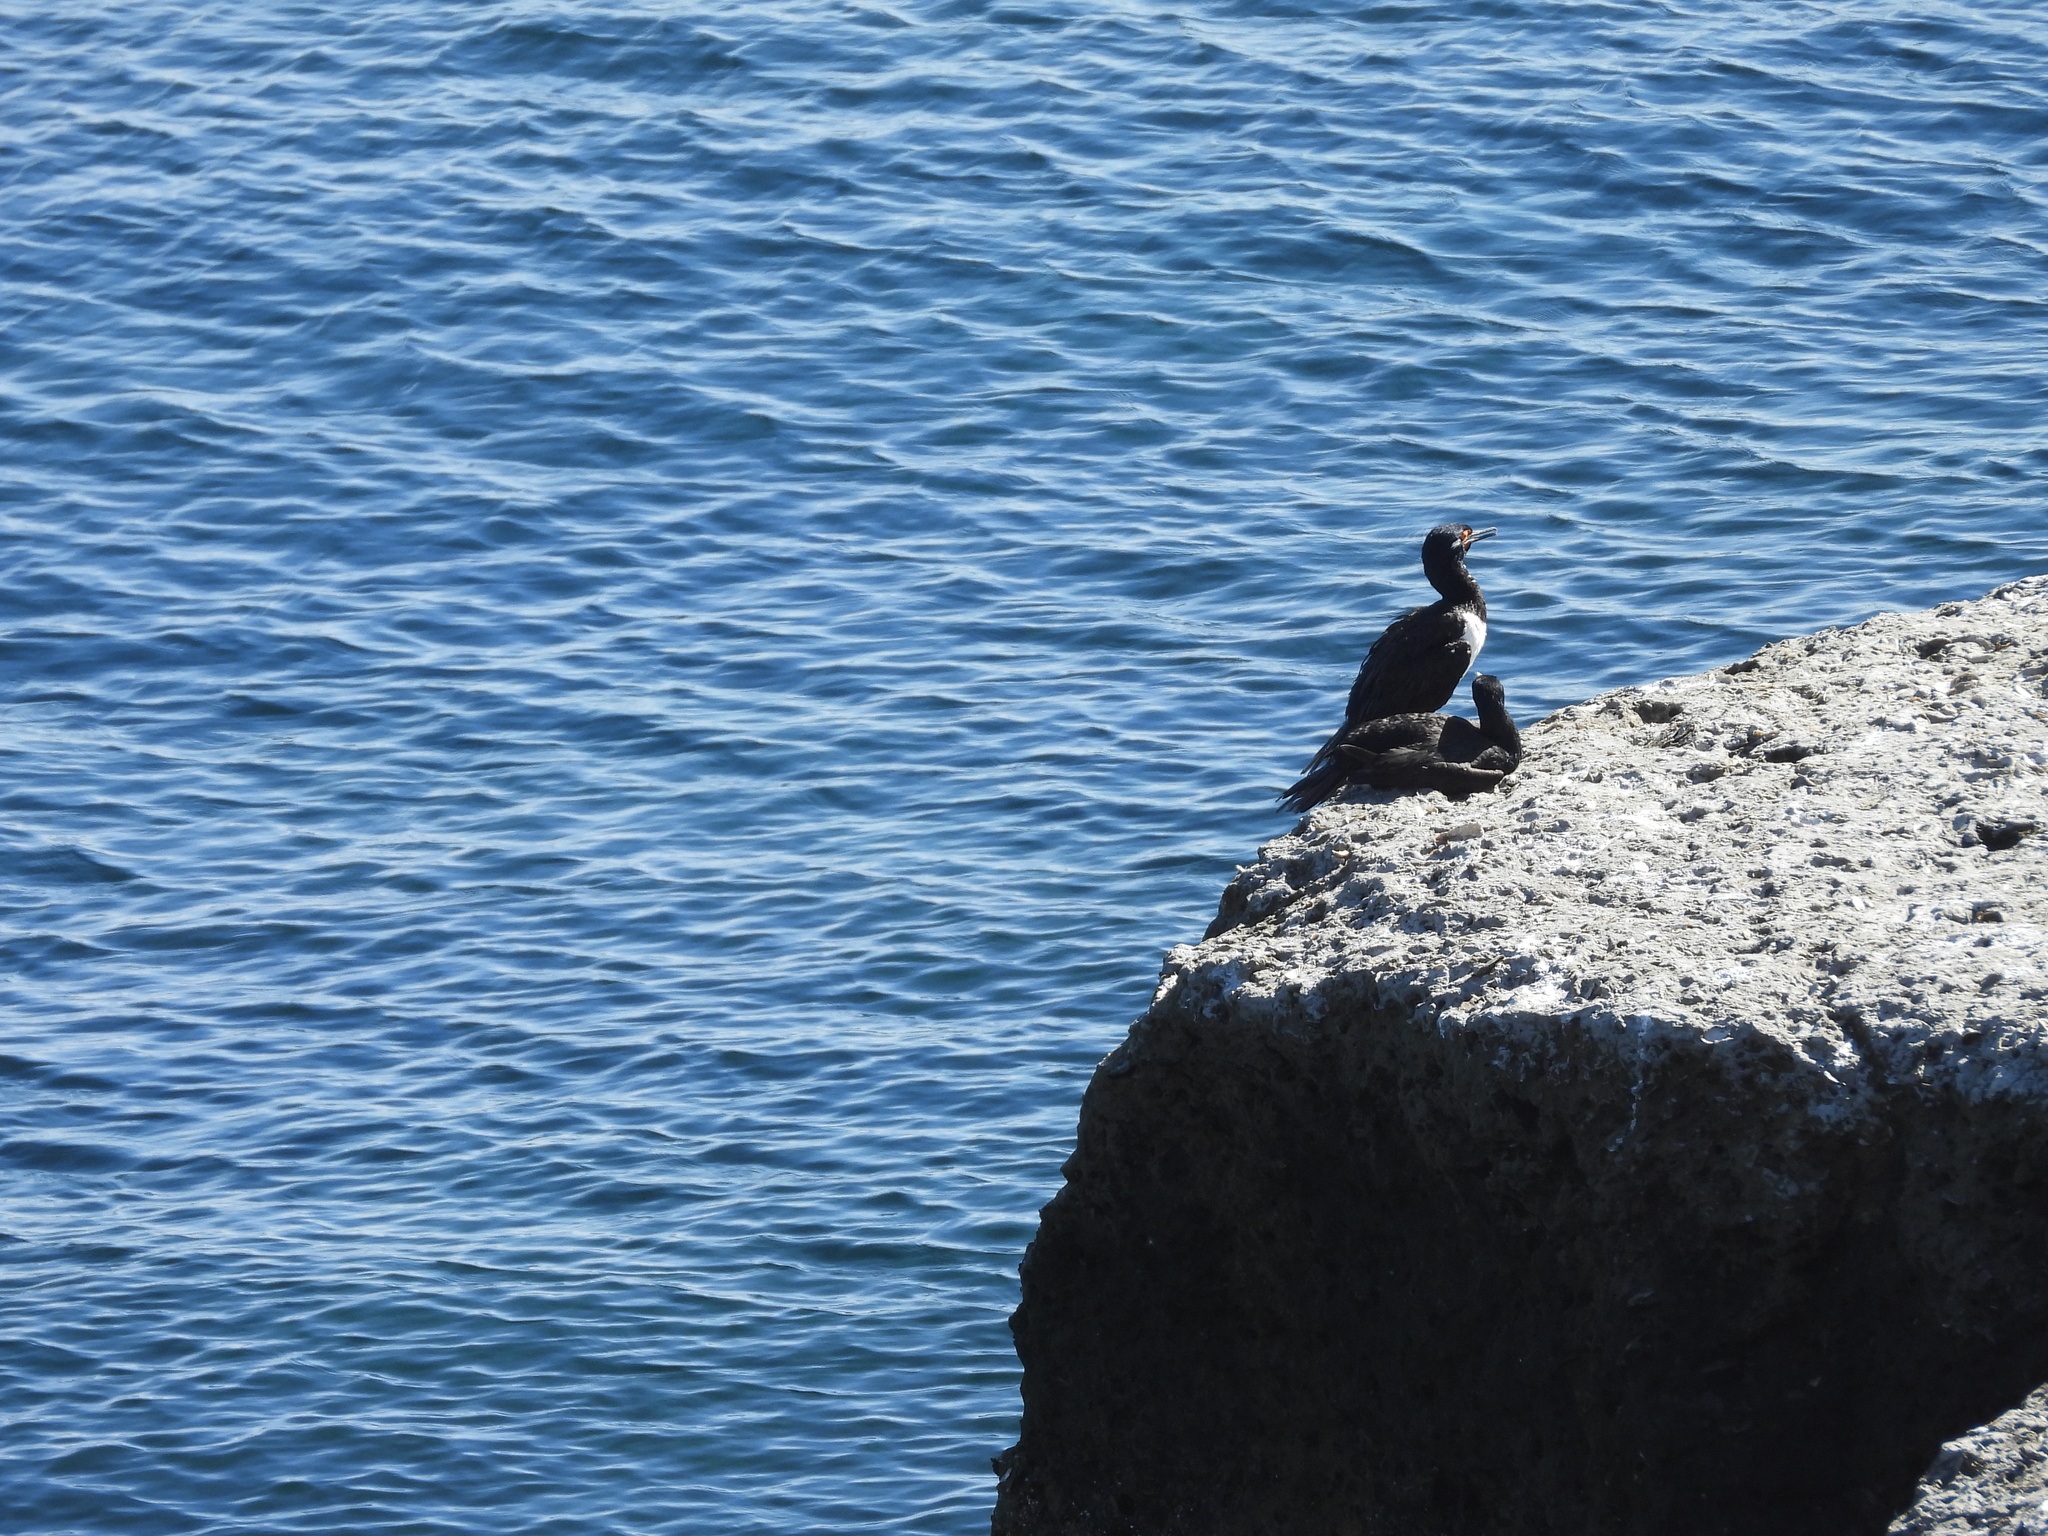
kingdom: Animalia
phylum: Chordata
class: Aves
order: Suliformes
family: Phalacrocoracidae
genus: Phalacrocorax
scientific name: Phalacrocorax magellanicus
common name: Rock shag
